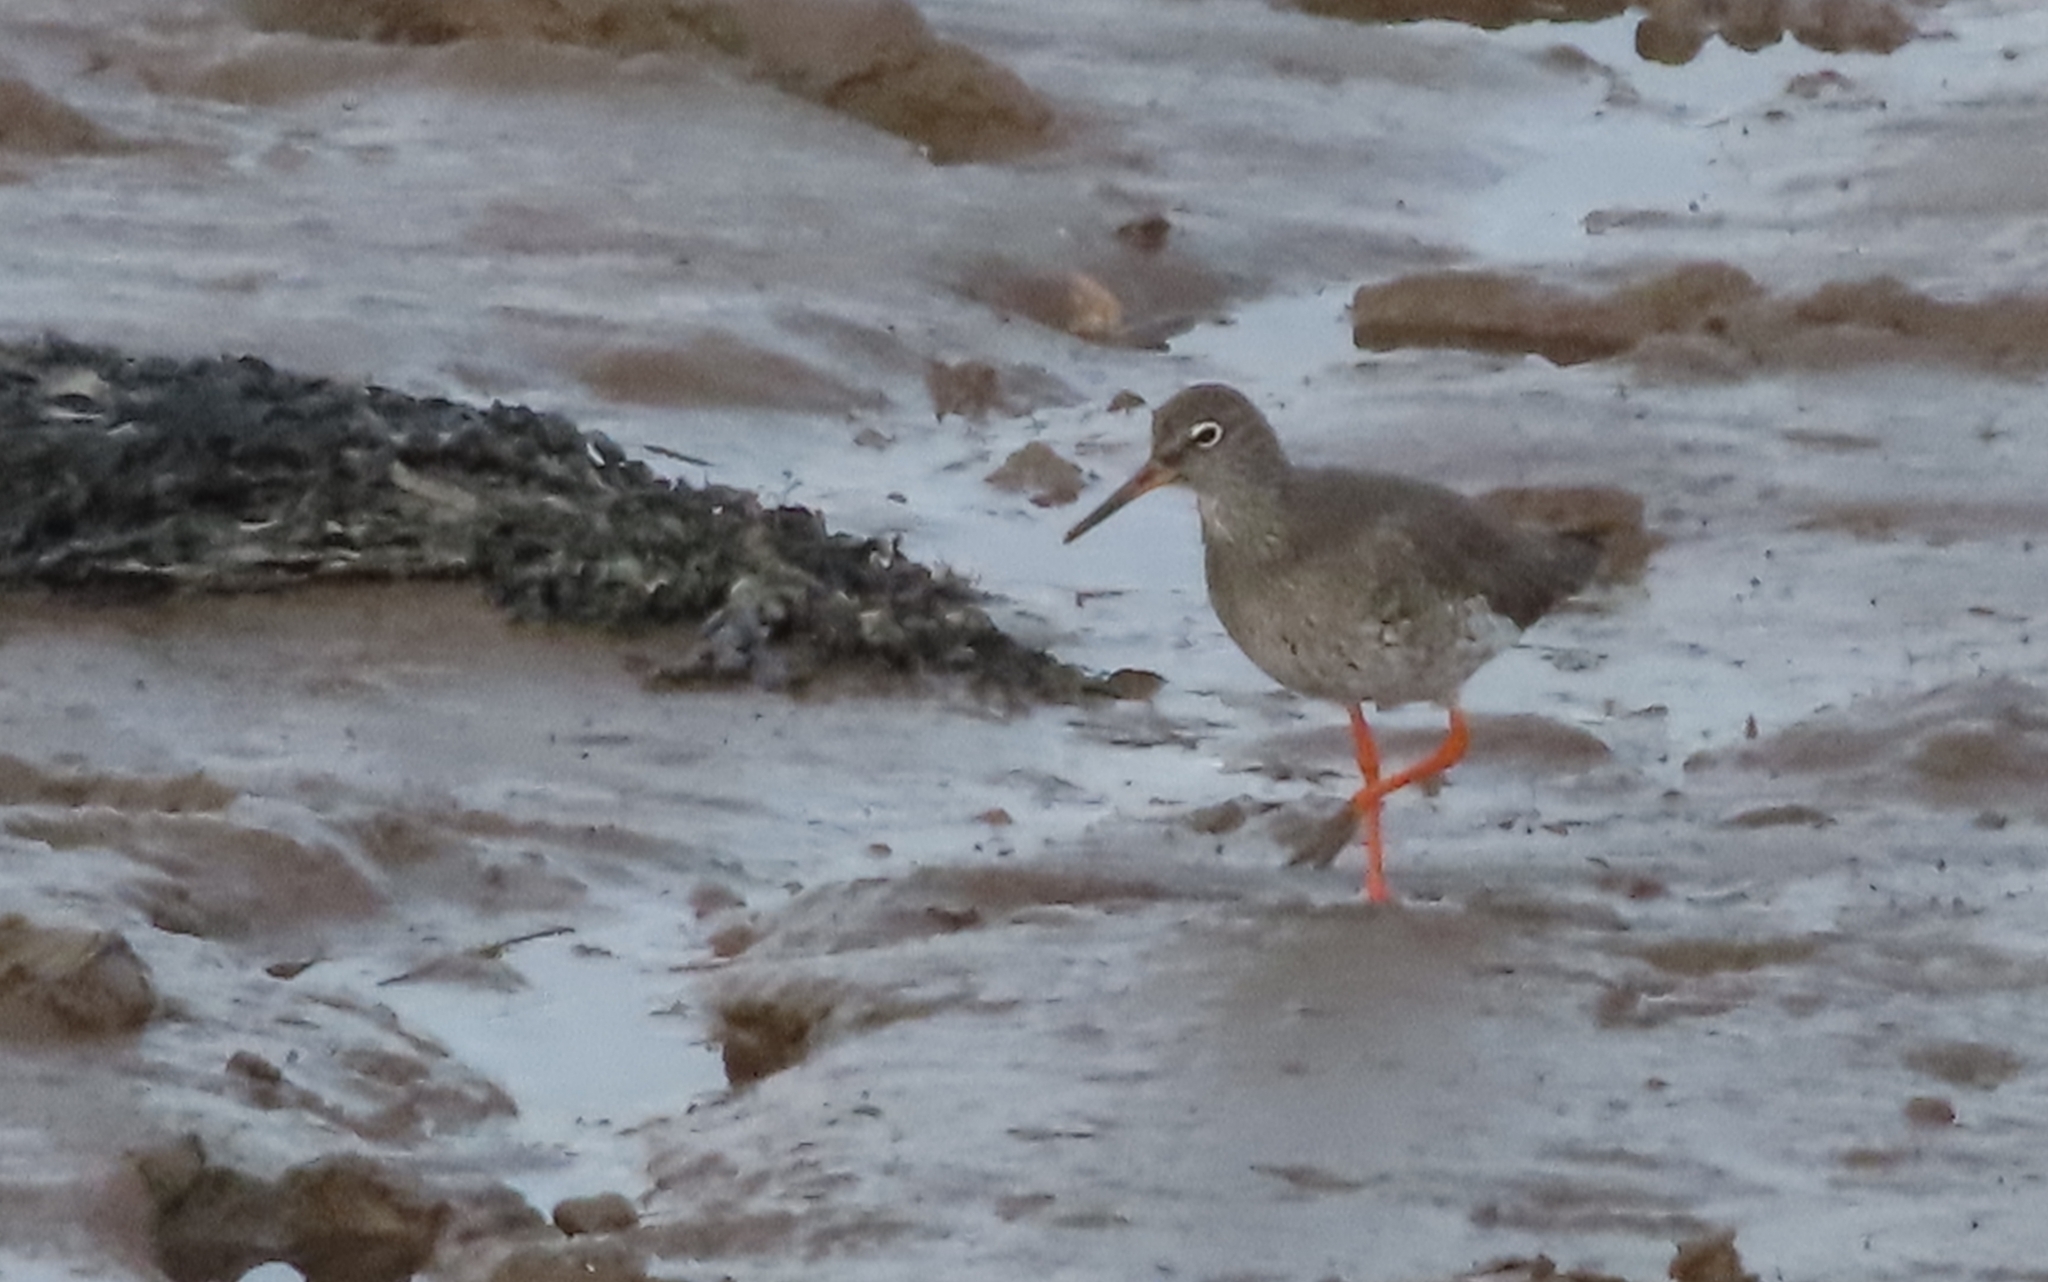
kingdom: Animalia
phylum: Chordata
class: Aves
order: Charadriiformes
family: Scolopacidae
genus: Tringa
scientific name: Tringa totanus
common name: Common redshank
